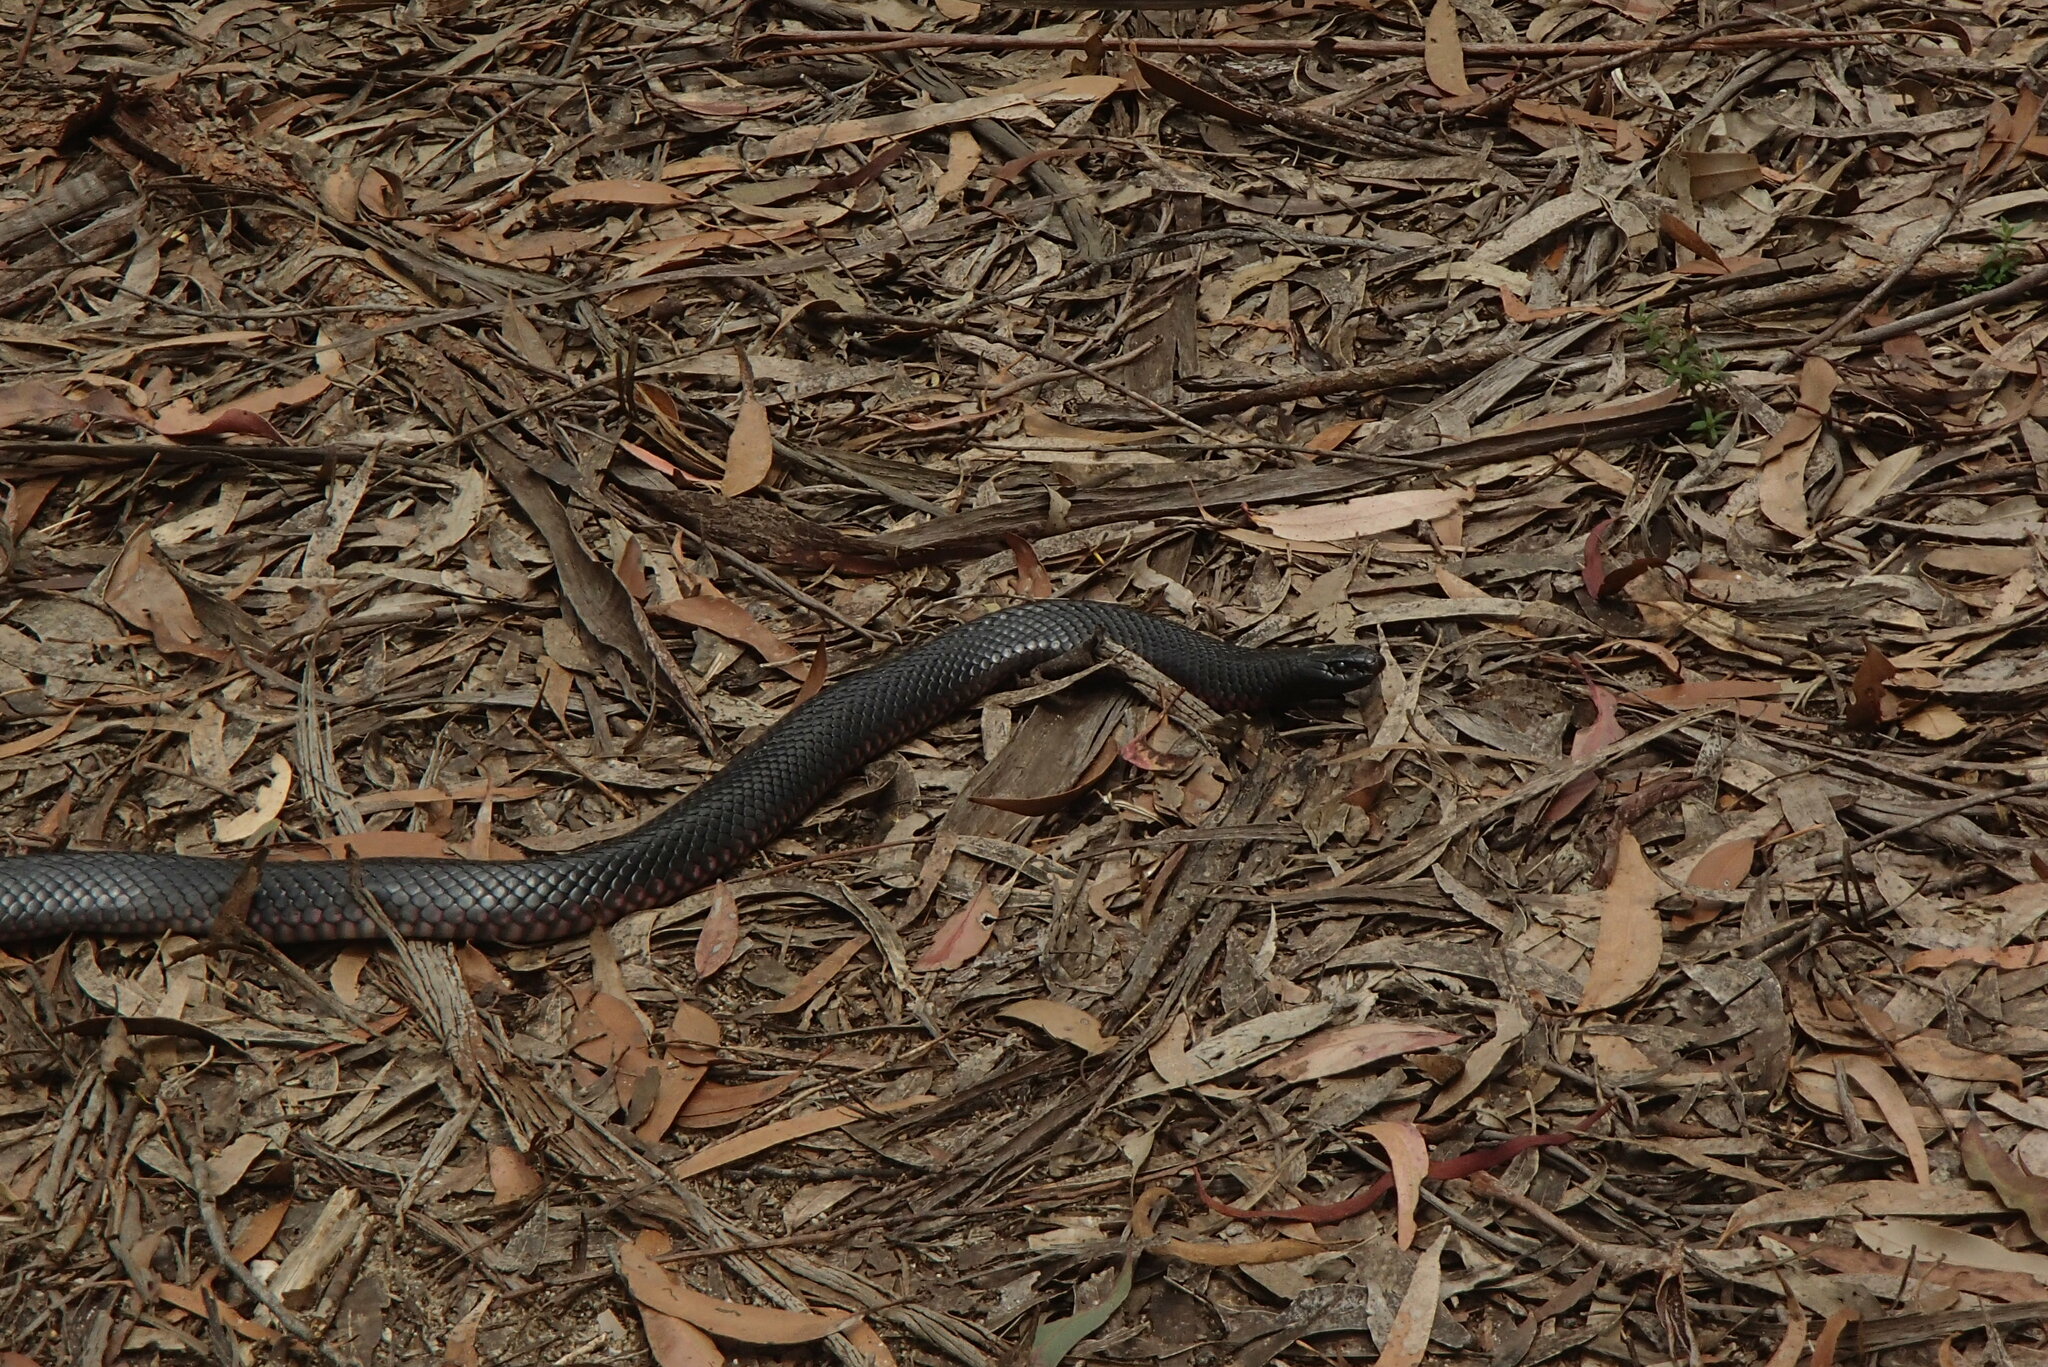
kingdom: Animalia
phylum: Chordata
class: Squamata
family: Elapidae
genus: Pseudechis
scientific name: Pseudechis porphyriacus
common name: Australian black snake
